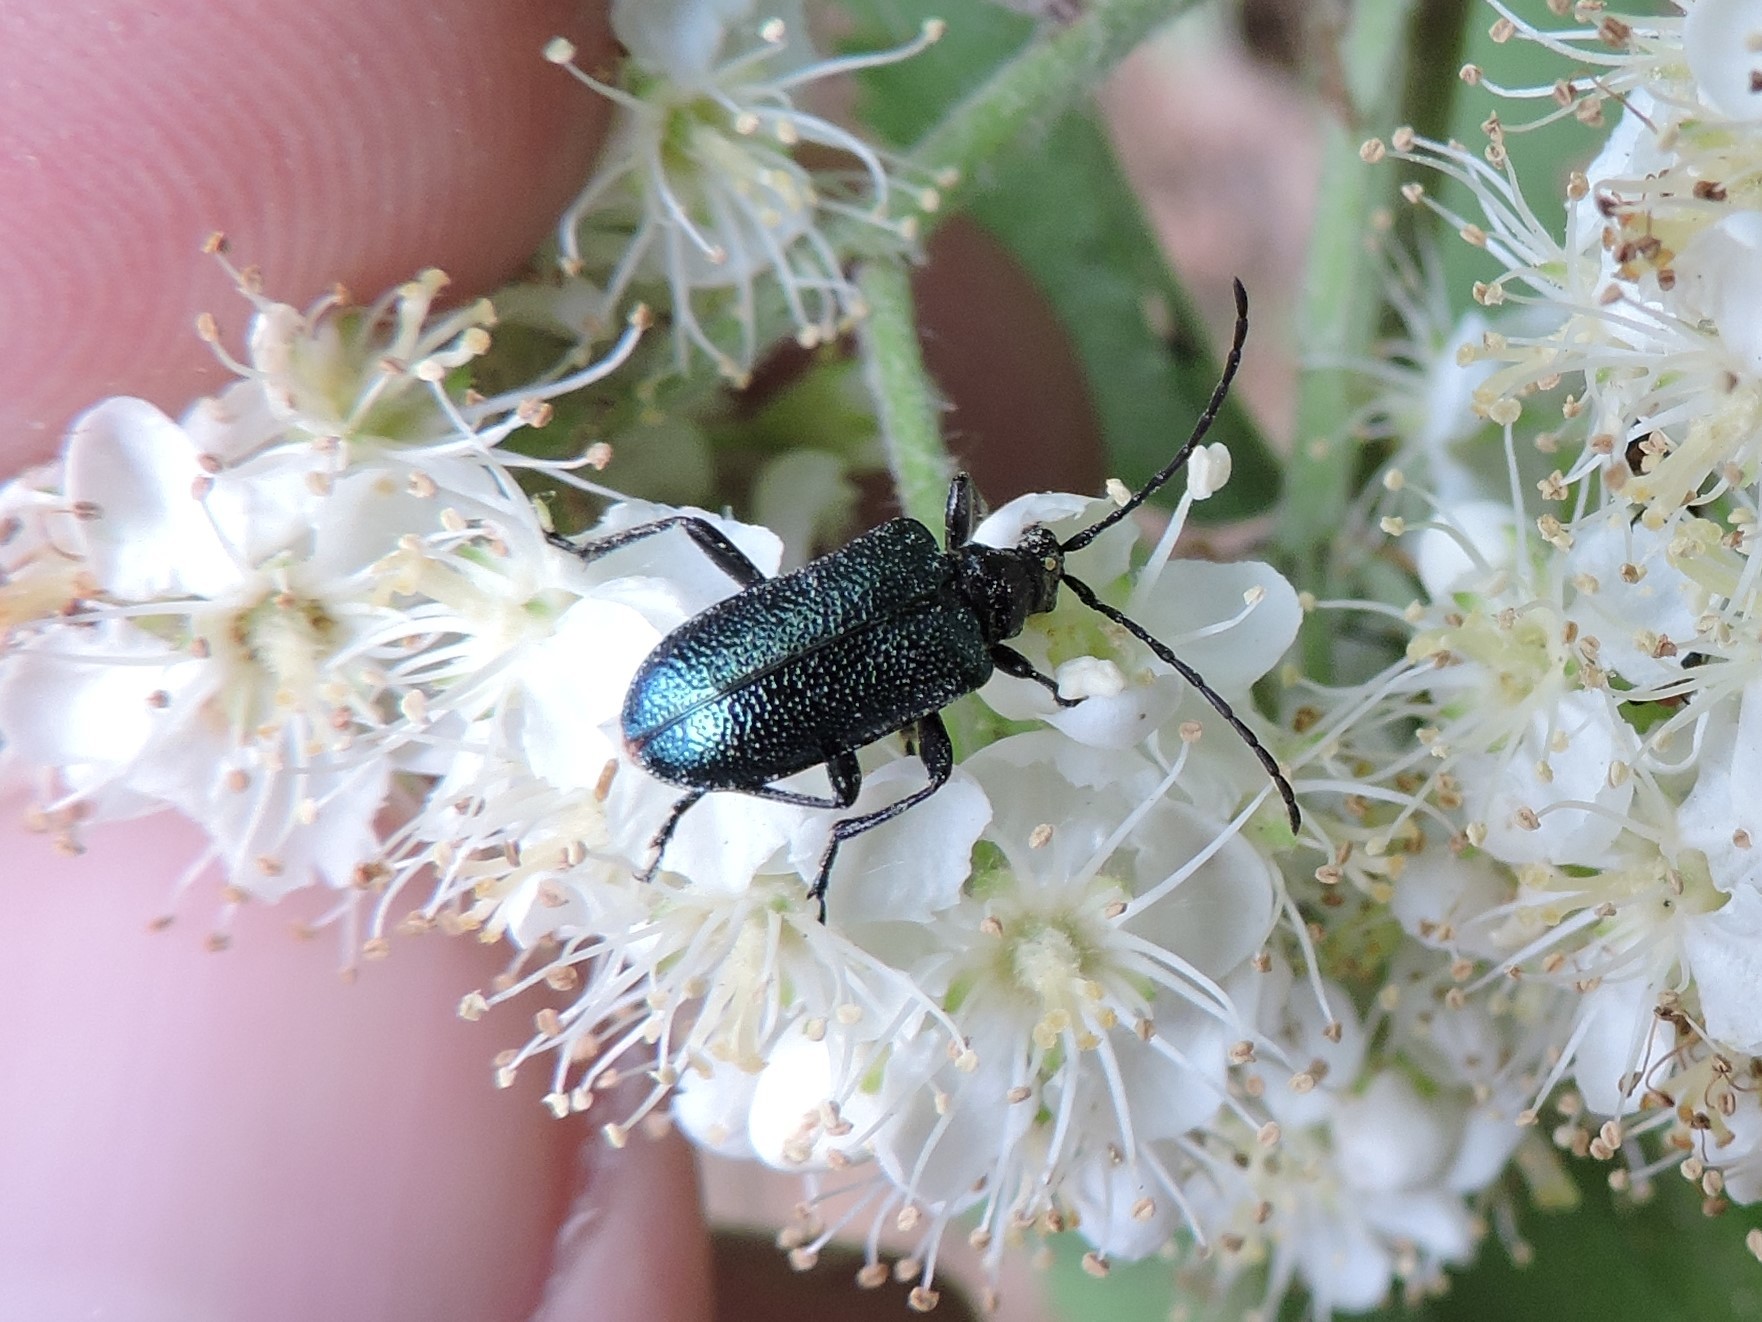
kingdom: Animalia
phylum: Arthropoda
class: Insecta
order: Coleoptera
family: Cerambycidae
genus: Gaurotes
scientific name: Gaurotes virginea
